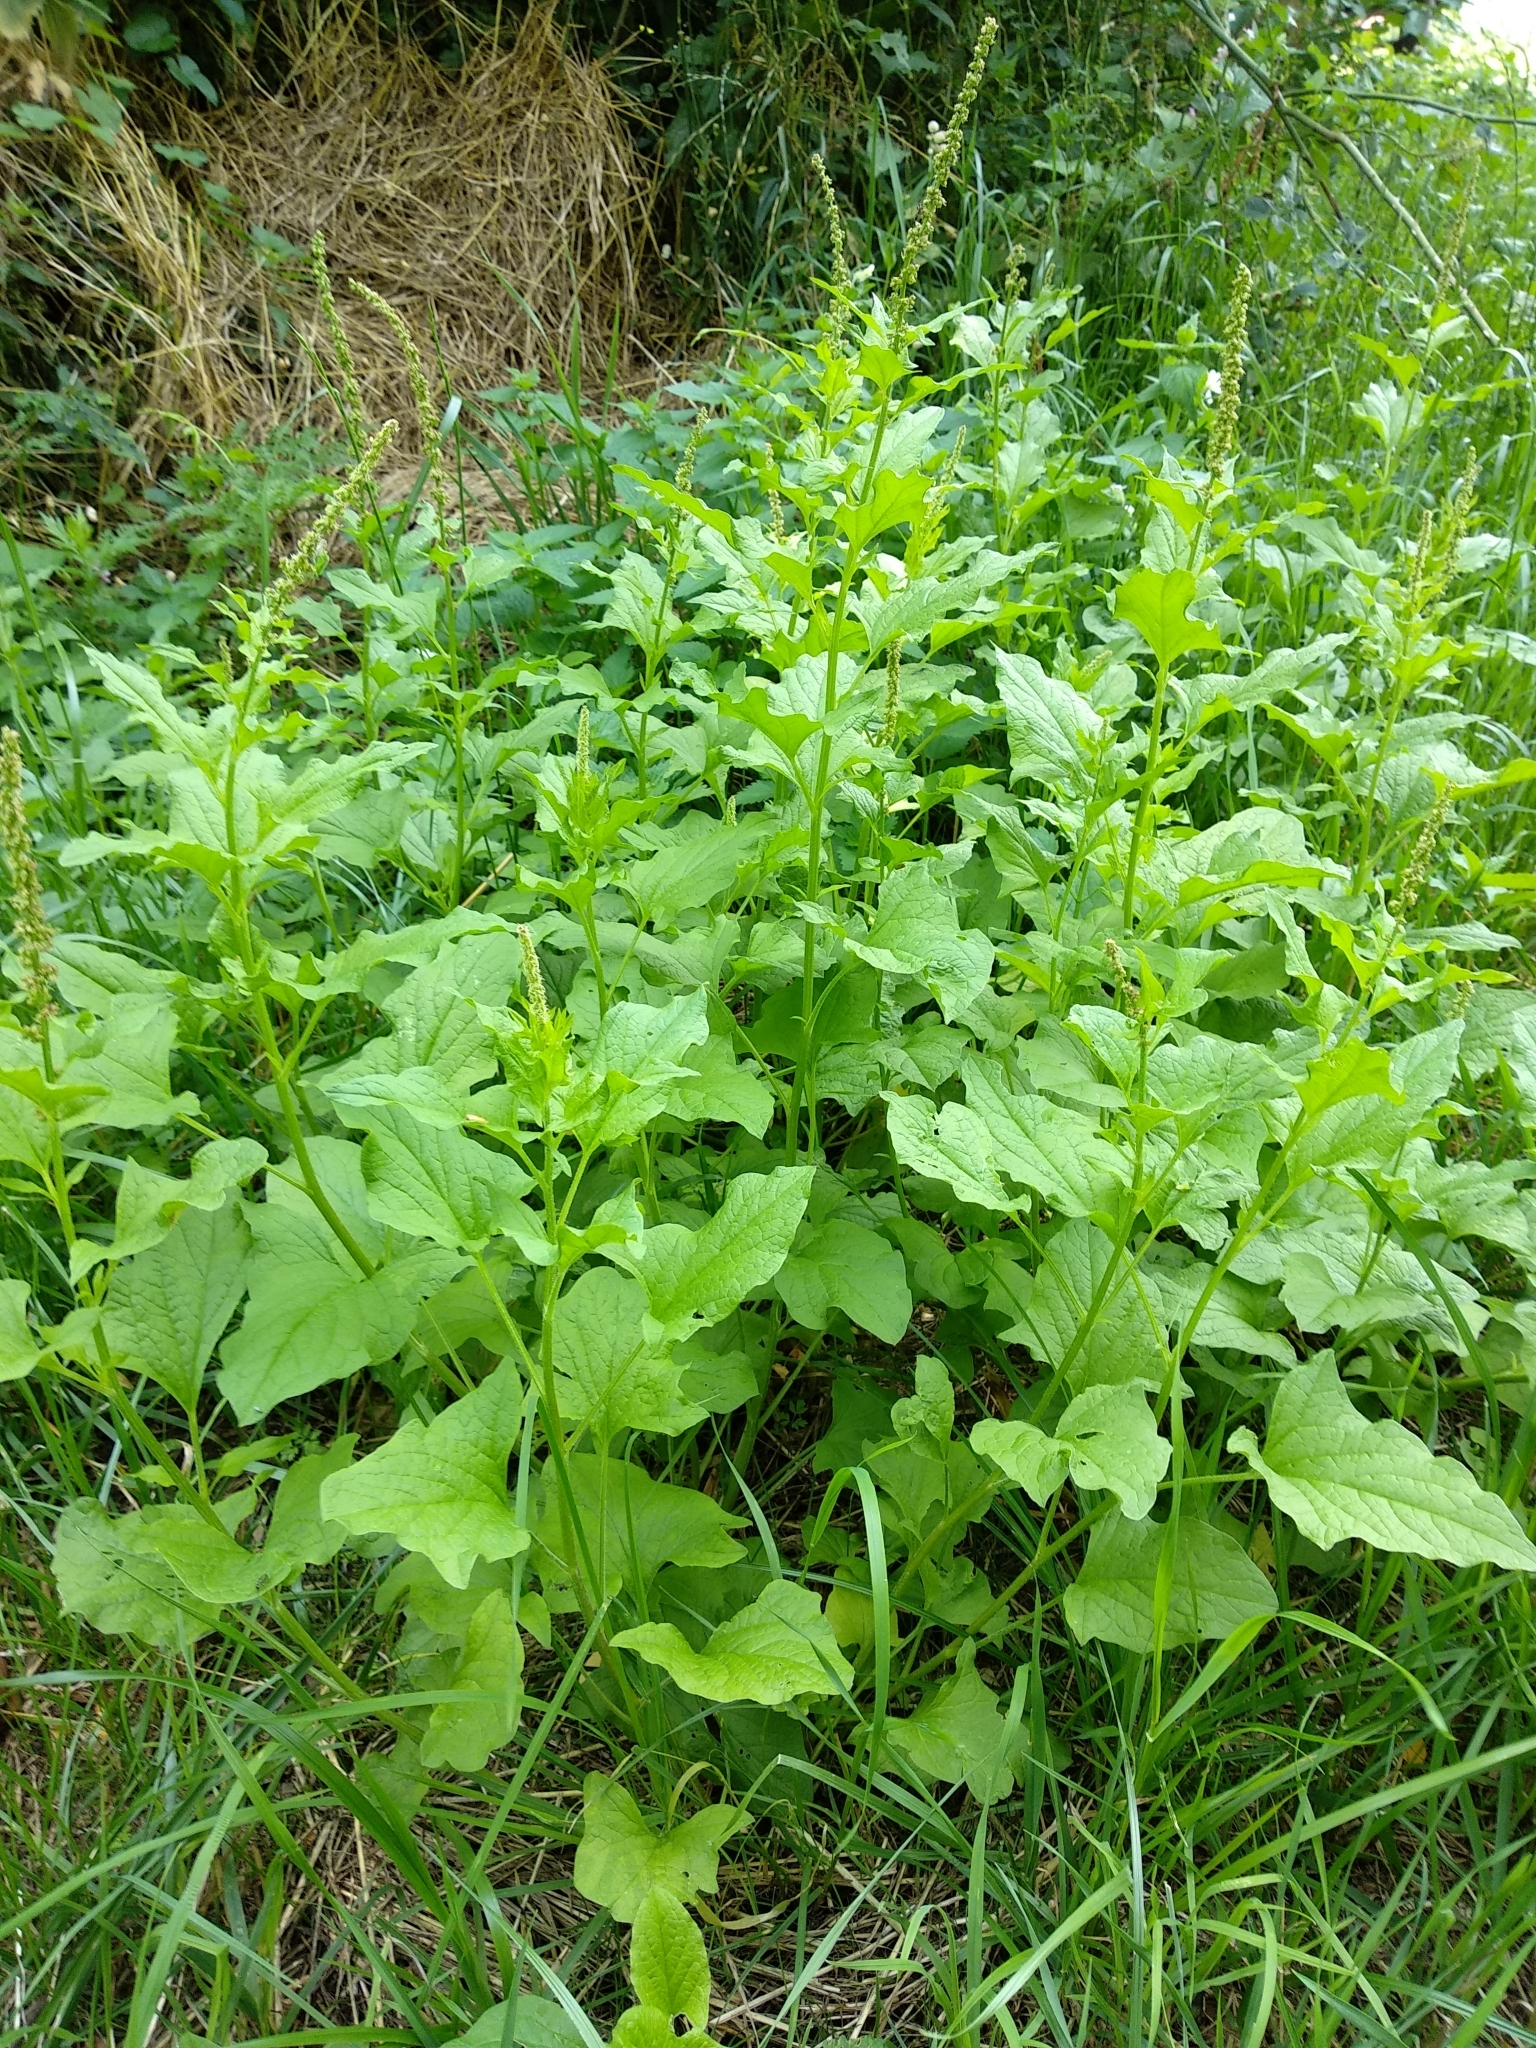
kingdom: Plantae
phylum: Tracheophyta
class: Magnoliopsida
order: Caryophyllales
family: Amaranthaceae
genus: Blitum
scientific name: Blitum bonus-henricus
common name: Good king henry
